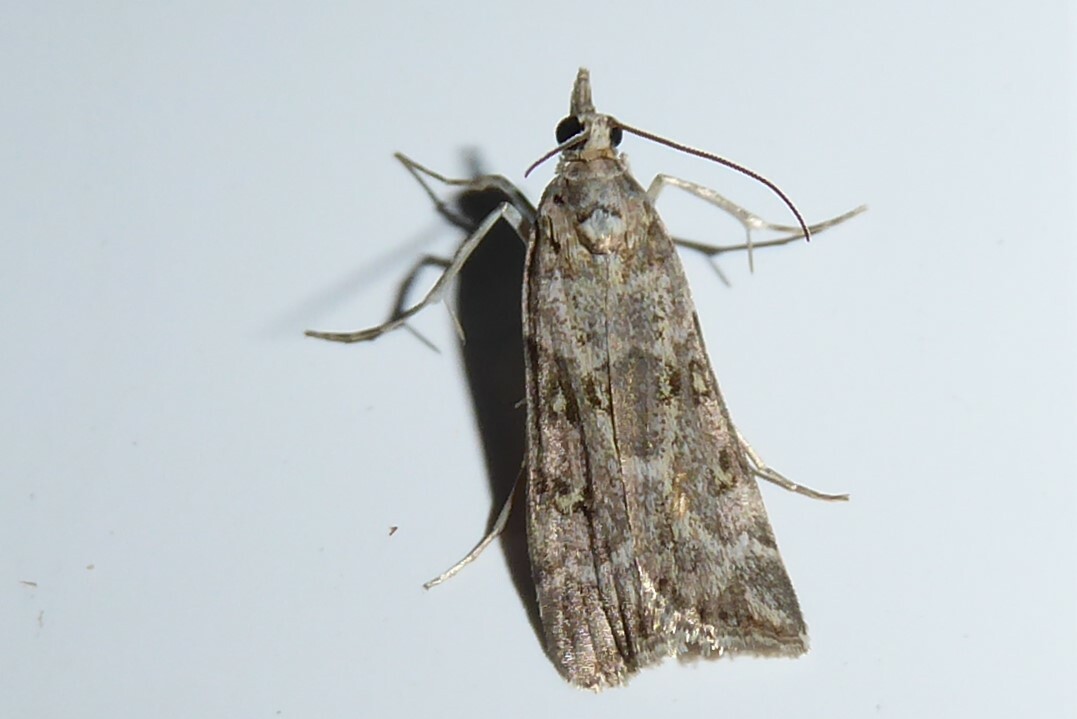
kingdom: Animalia
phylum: Arthropoda
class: Insecta
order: Lepidoptera
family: Crambidae
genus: Scoparia
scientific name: Scoparia tetracycla
